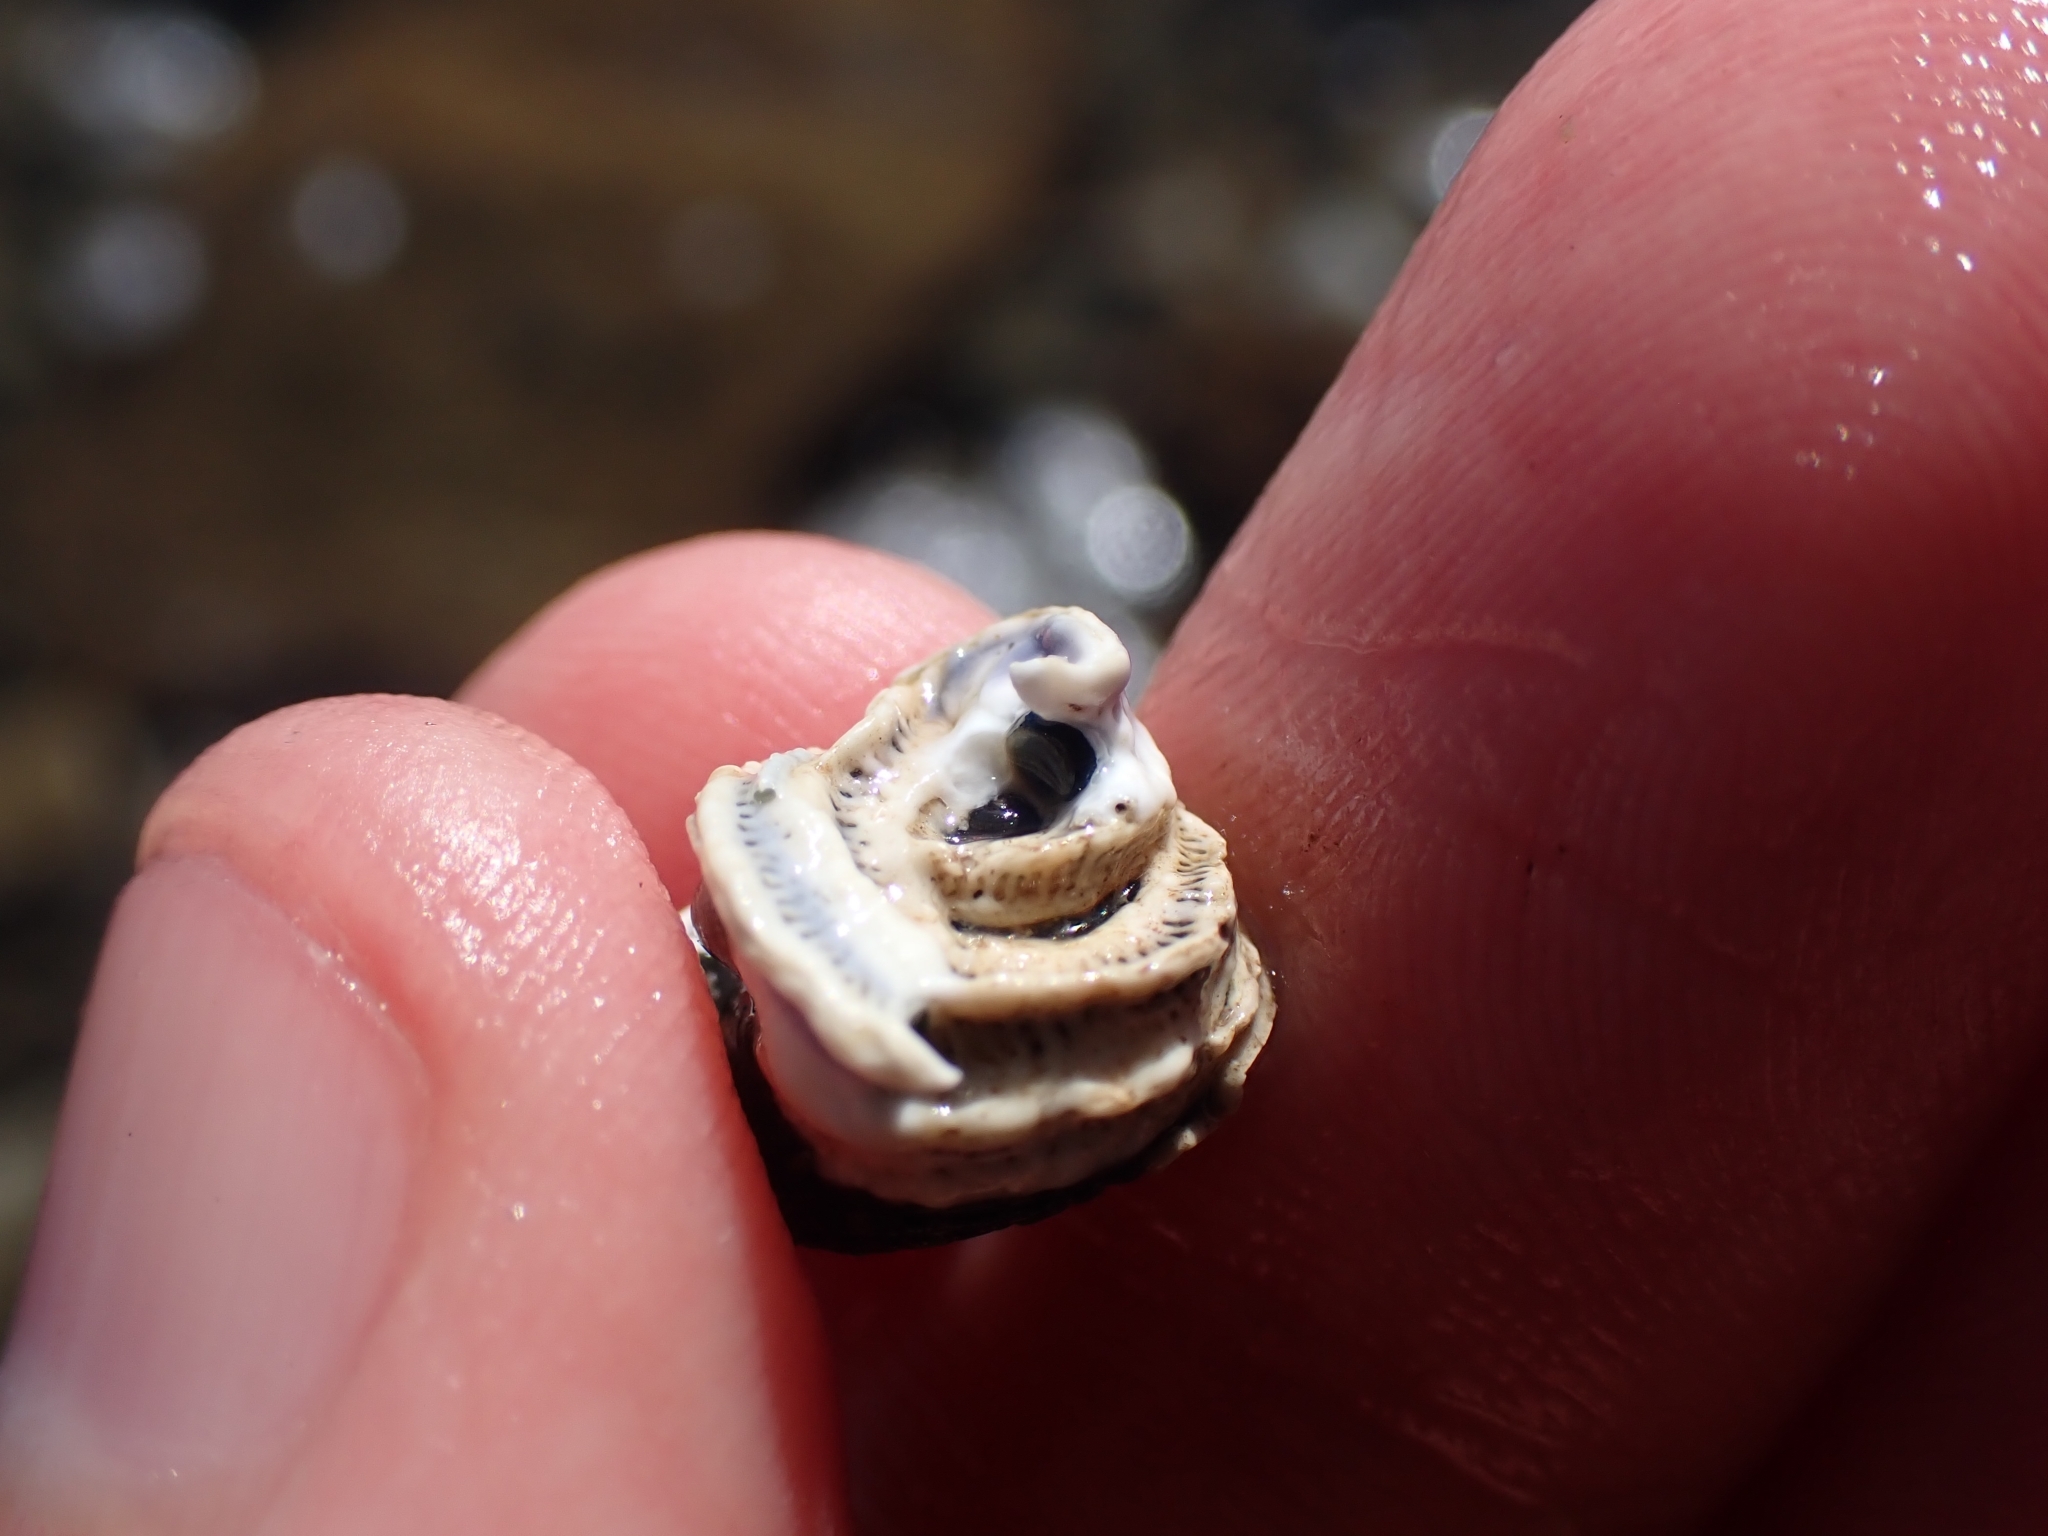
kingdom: Animalia
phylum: Annelida
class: Polychaeta
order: Sabellida
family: Serpulidae
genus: Spirobranchus
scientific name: Spirobranchus cariniferus
